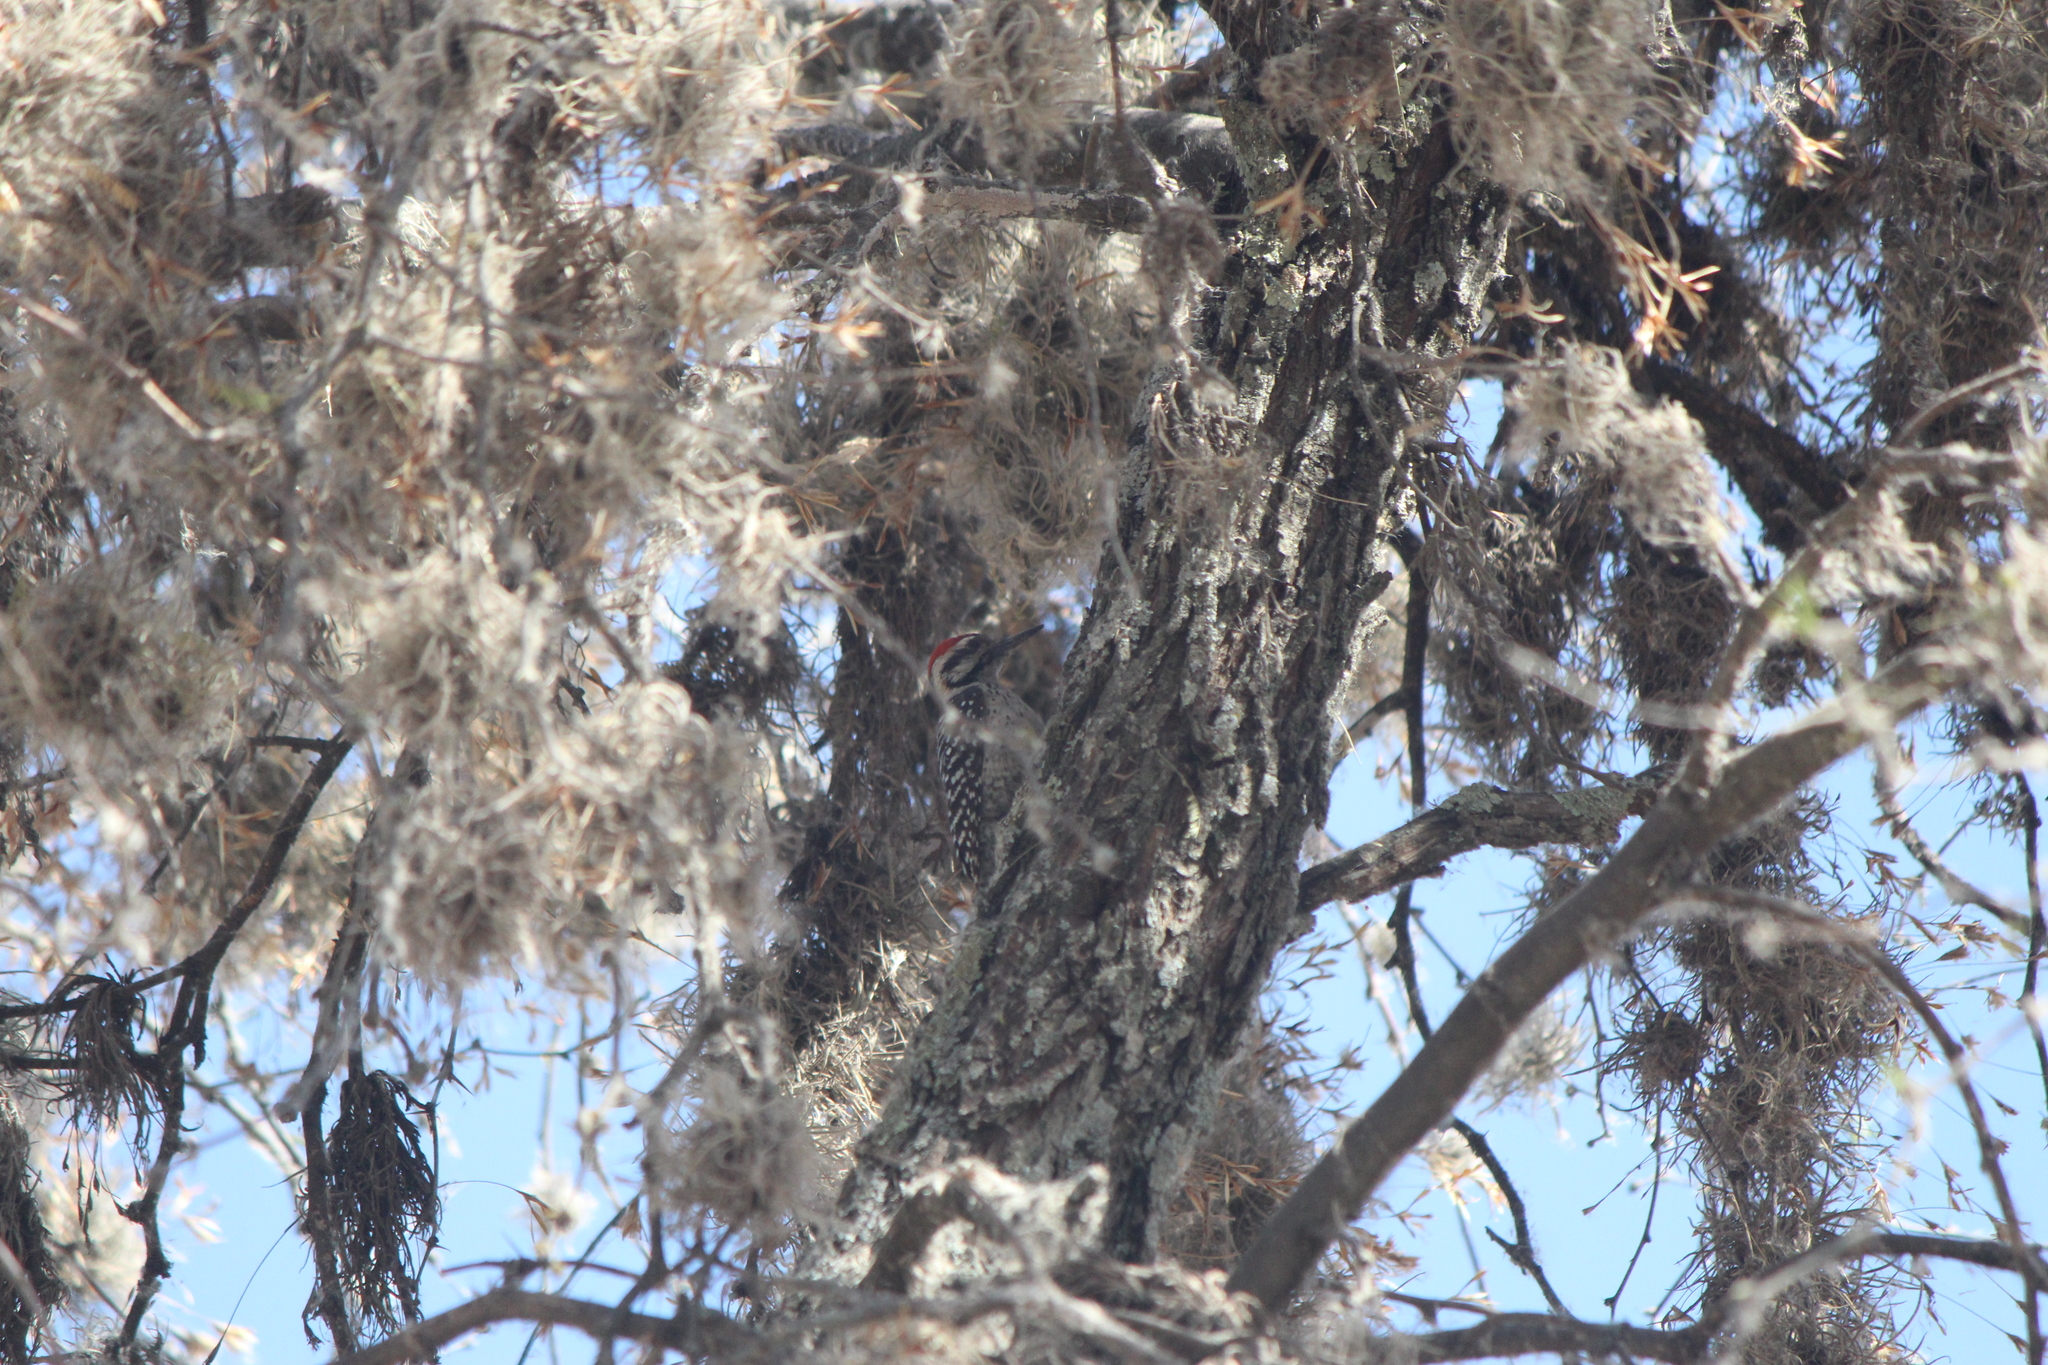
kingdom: Animalia
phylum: Chordata
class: Aves
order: Piciformes
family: Picidae
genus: Dryobates
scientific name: Dryobates scalaris
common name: Ladder-backed woodpecker
